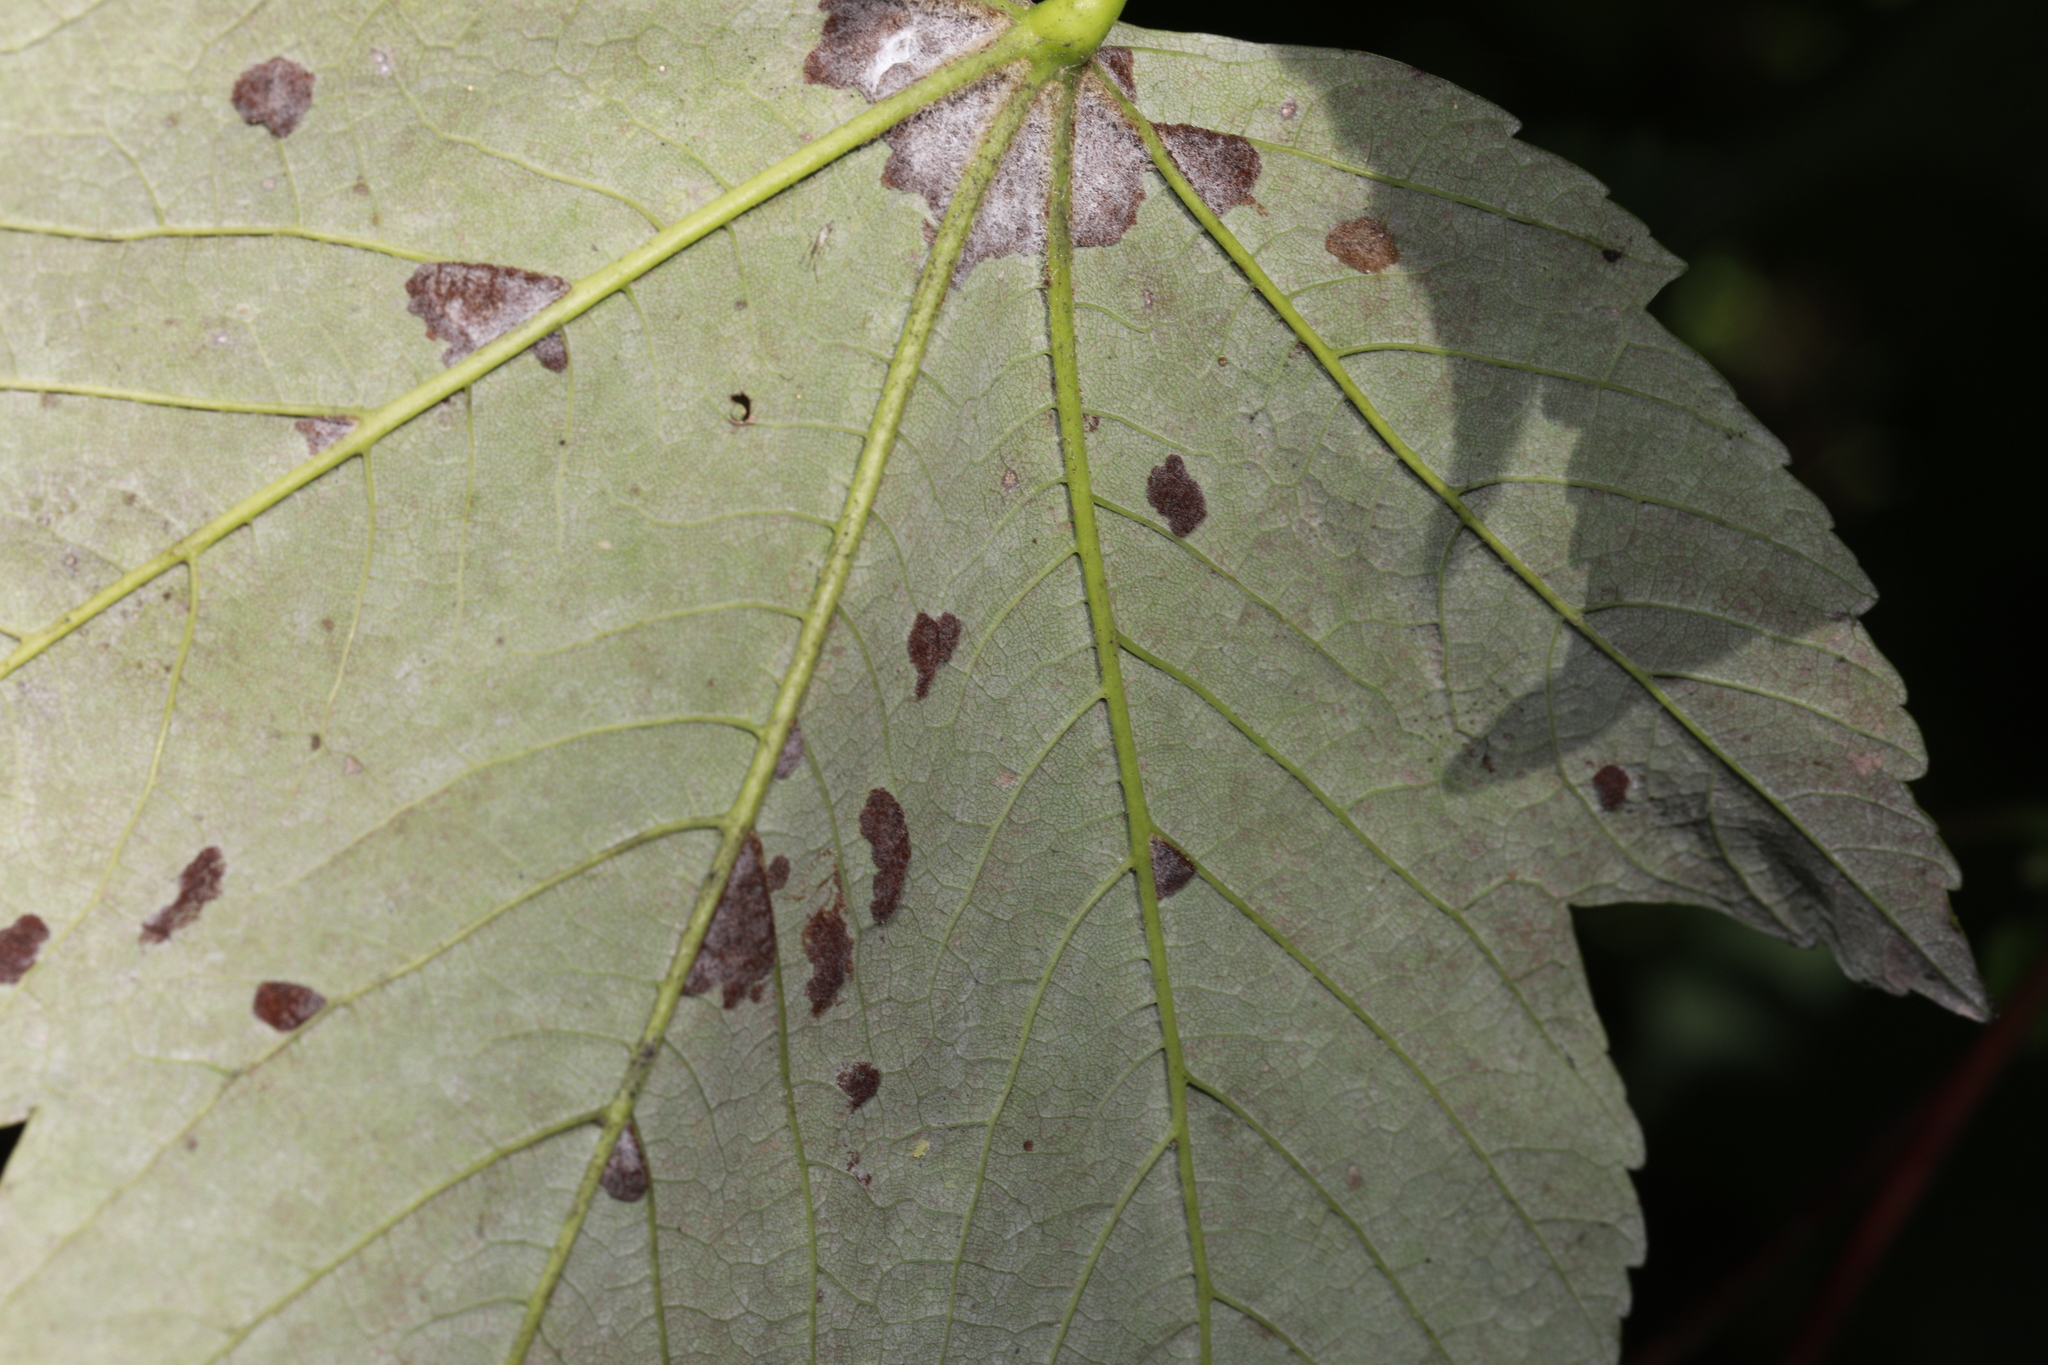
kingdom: Animalia
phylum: Arthropoda
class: Arachnida
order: Trombidiformes
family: Eriophyidae
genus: Aceria
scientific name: Aceria pseudoplatani
